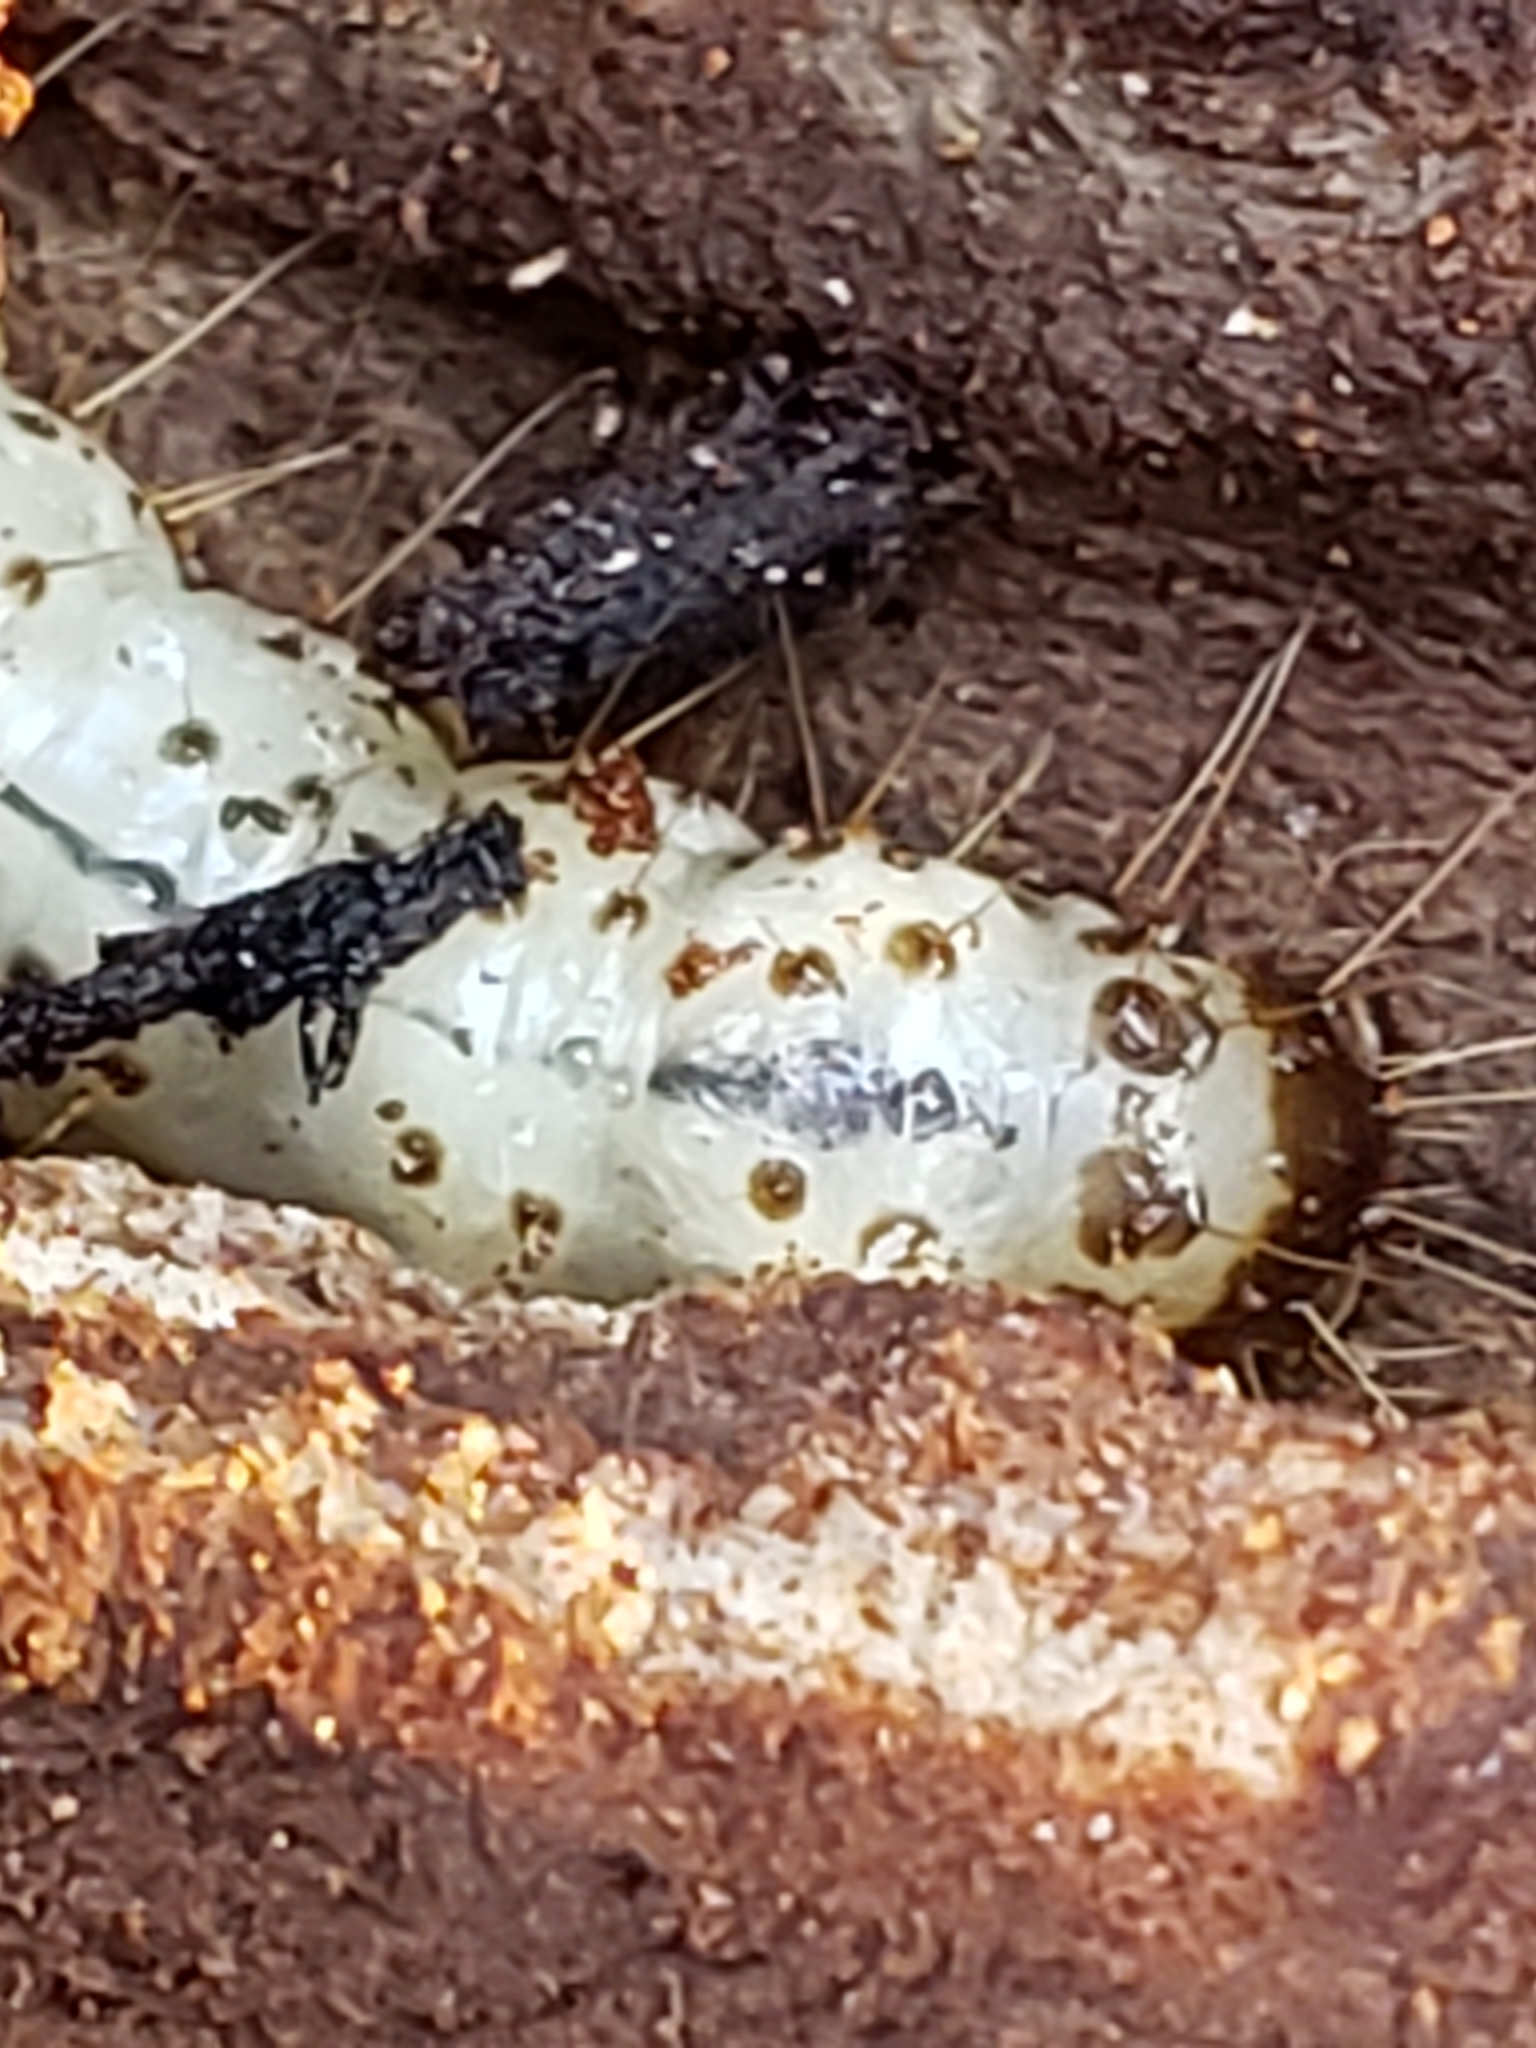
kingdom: Animalia
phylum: Arthropoda
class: Insecta
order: Lepidoptera
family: Erebidae
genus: Scolecocampa
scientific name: Scolecocampa liburna
